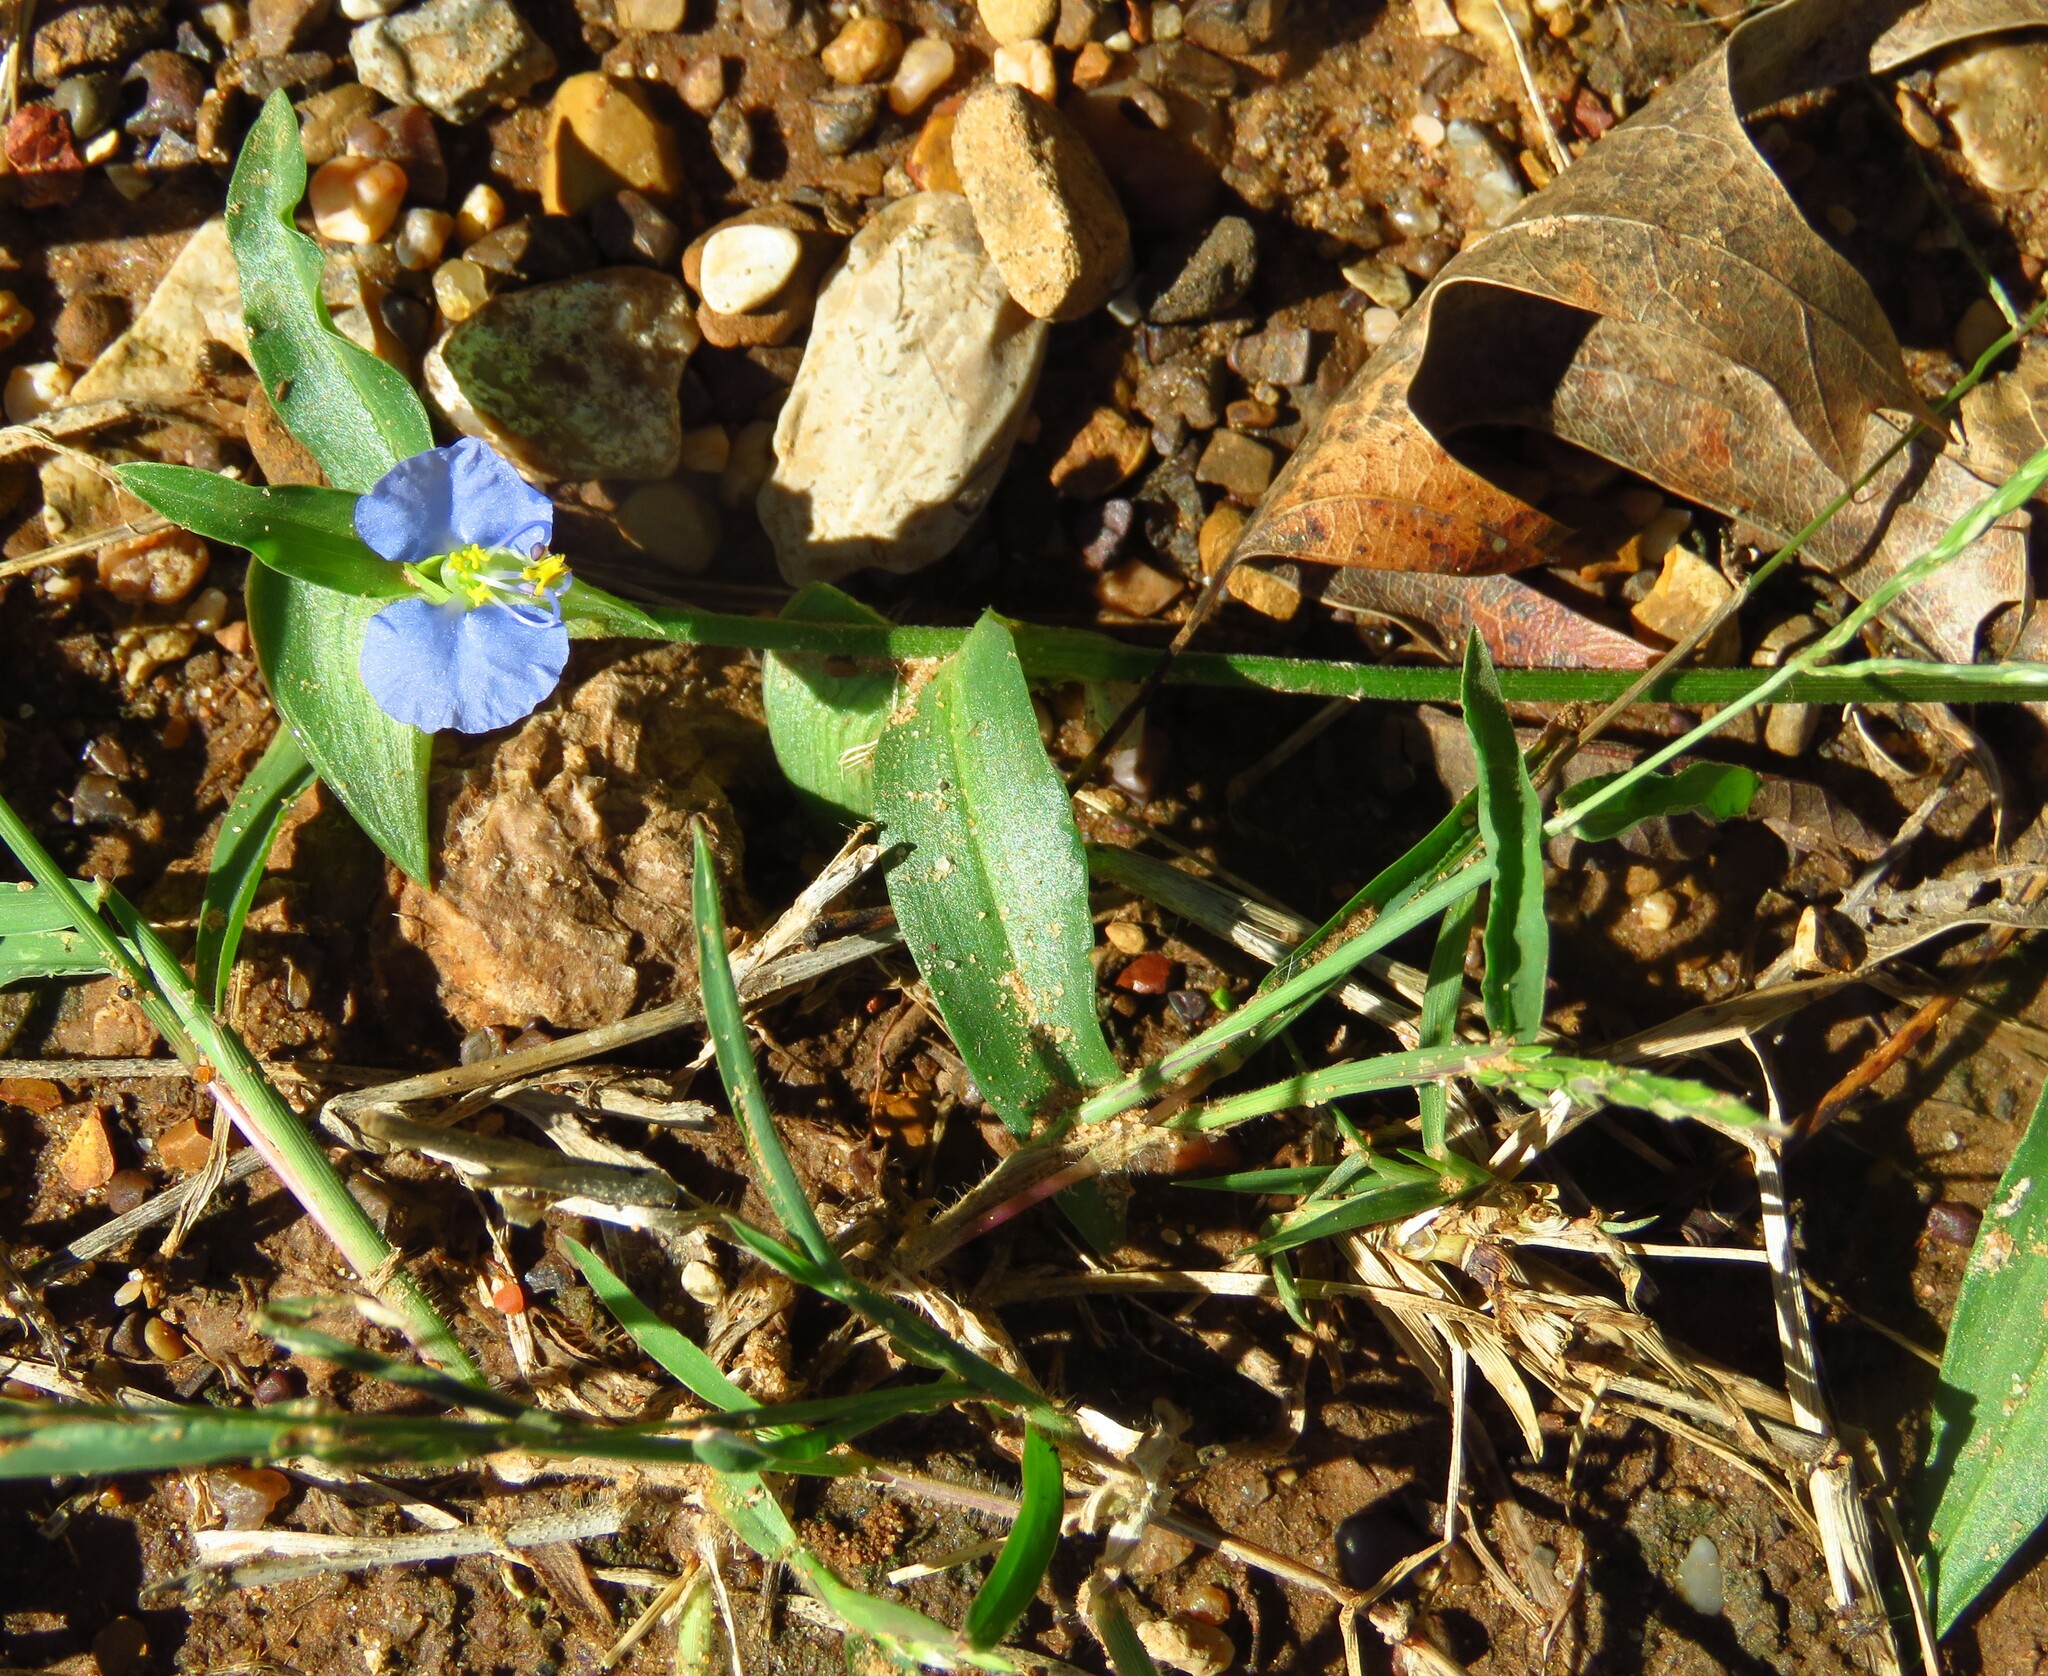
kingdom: Plantae
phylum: Tracheophyta
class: Liliopsida
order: Commelinales
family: Commelinaceae
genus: Commelina
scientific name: Commelina erecta
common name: Blousel blommetjie
